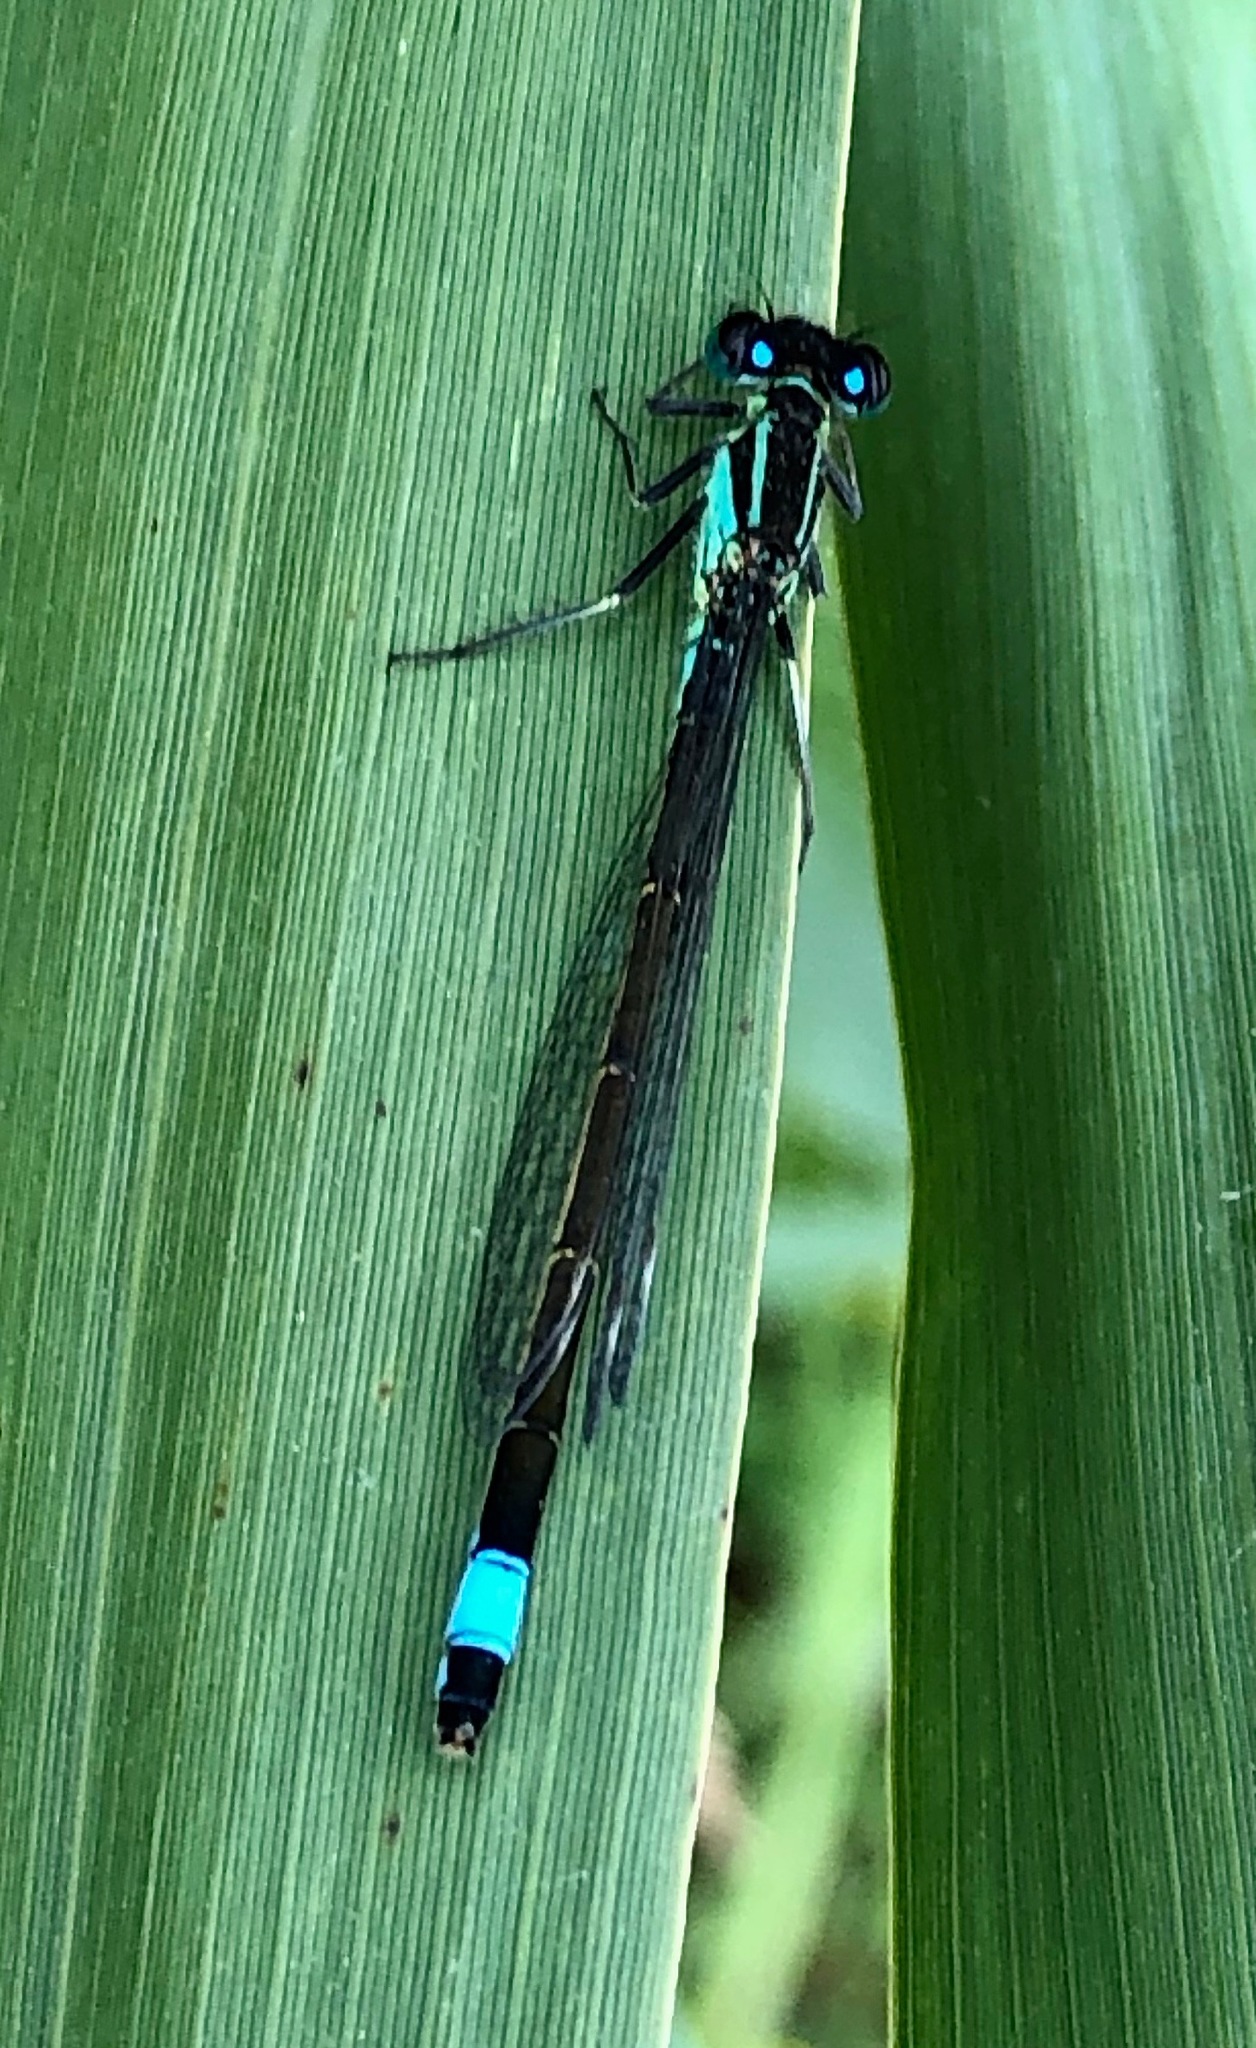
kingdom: Animalia
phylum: Arthropoda
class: Insecta
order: Odonata
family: Coenagrionidae
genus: Ischnura
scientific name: Ischnura elegans
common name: Blue-tailed damselfly
